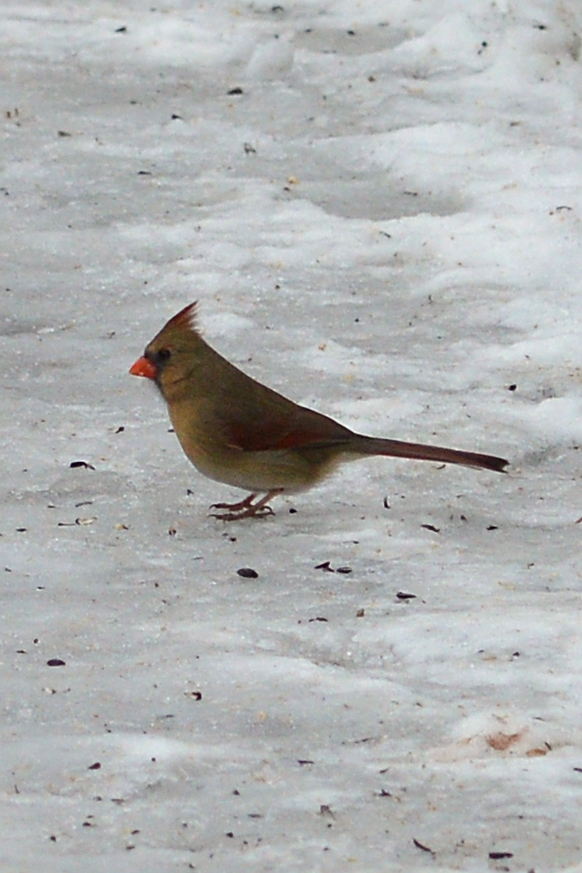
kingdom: Animalia
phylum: Chordata
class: Aves
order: Passeriformes
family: Cardinalidae
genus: Cardinalis
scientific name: Cardinalis cardinalis
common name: Northern cardinal
